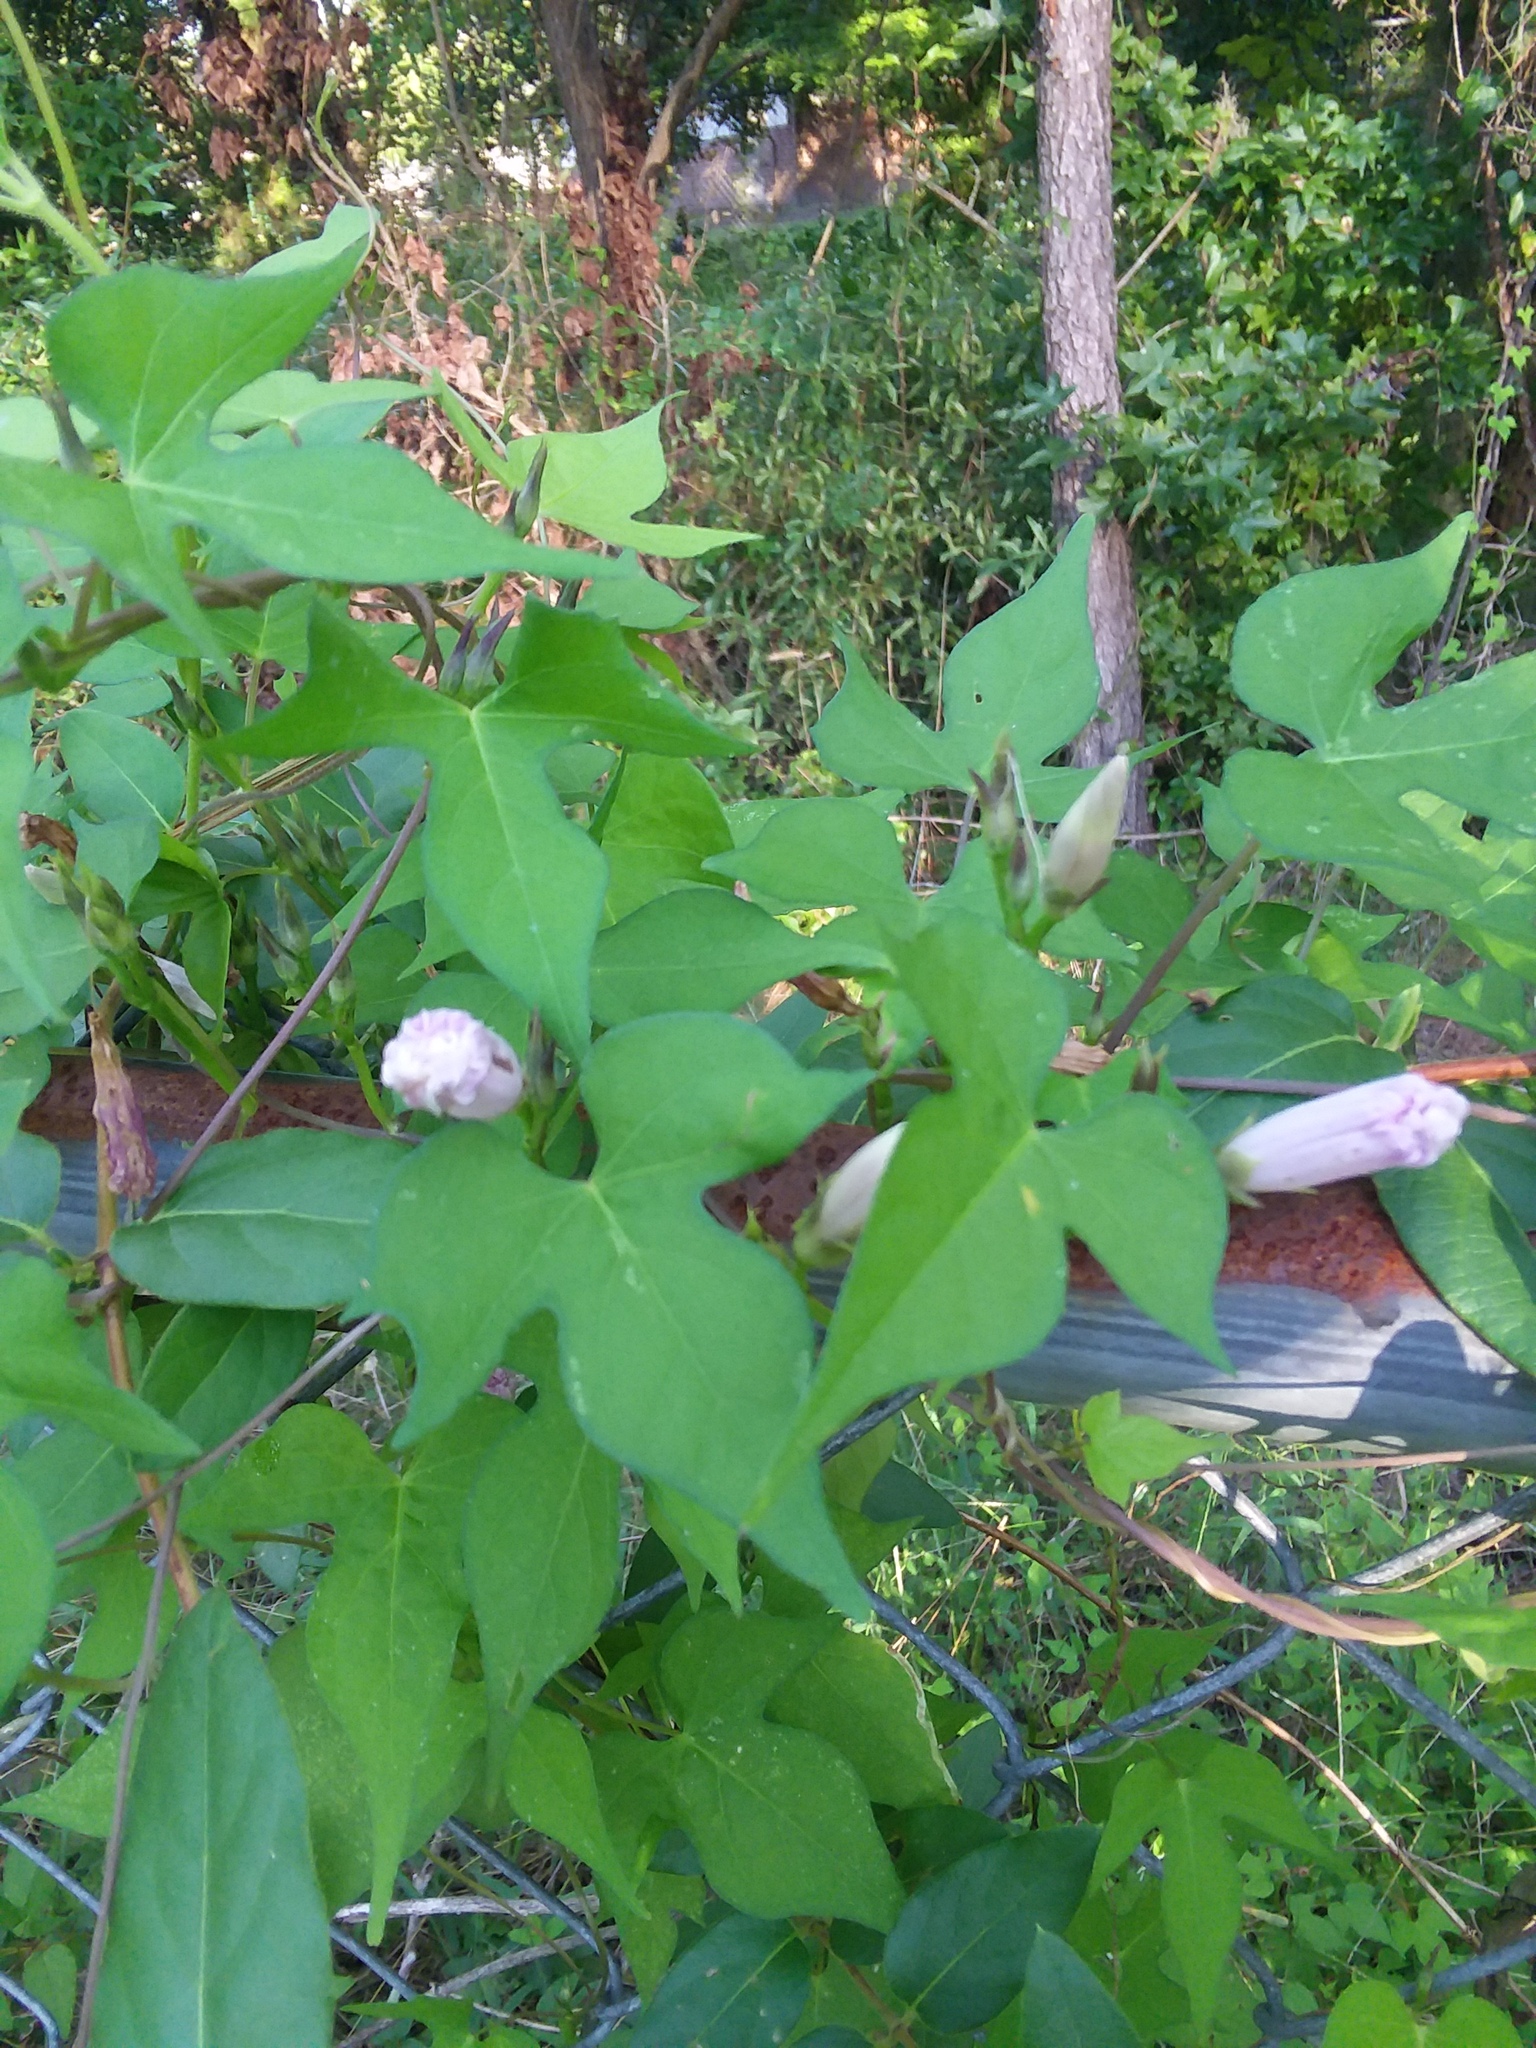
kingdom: Plantae
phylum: Tracheophyta
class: Magnoliopsida
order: Solanales
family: Convolvulaceae
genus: Ipomoea
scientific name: Ipomoea cordatotriloba
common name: Cotton morning glory
